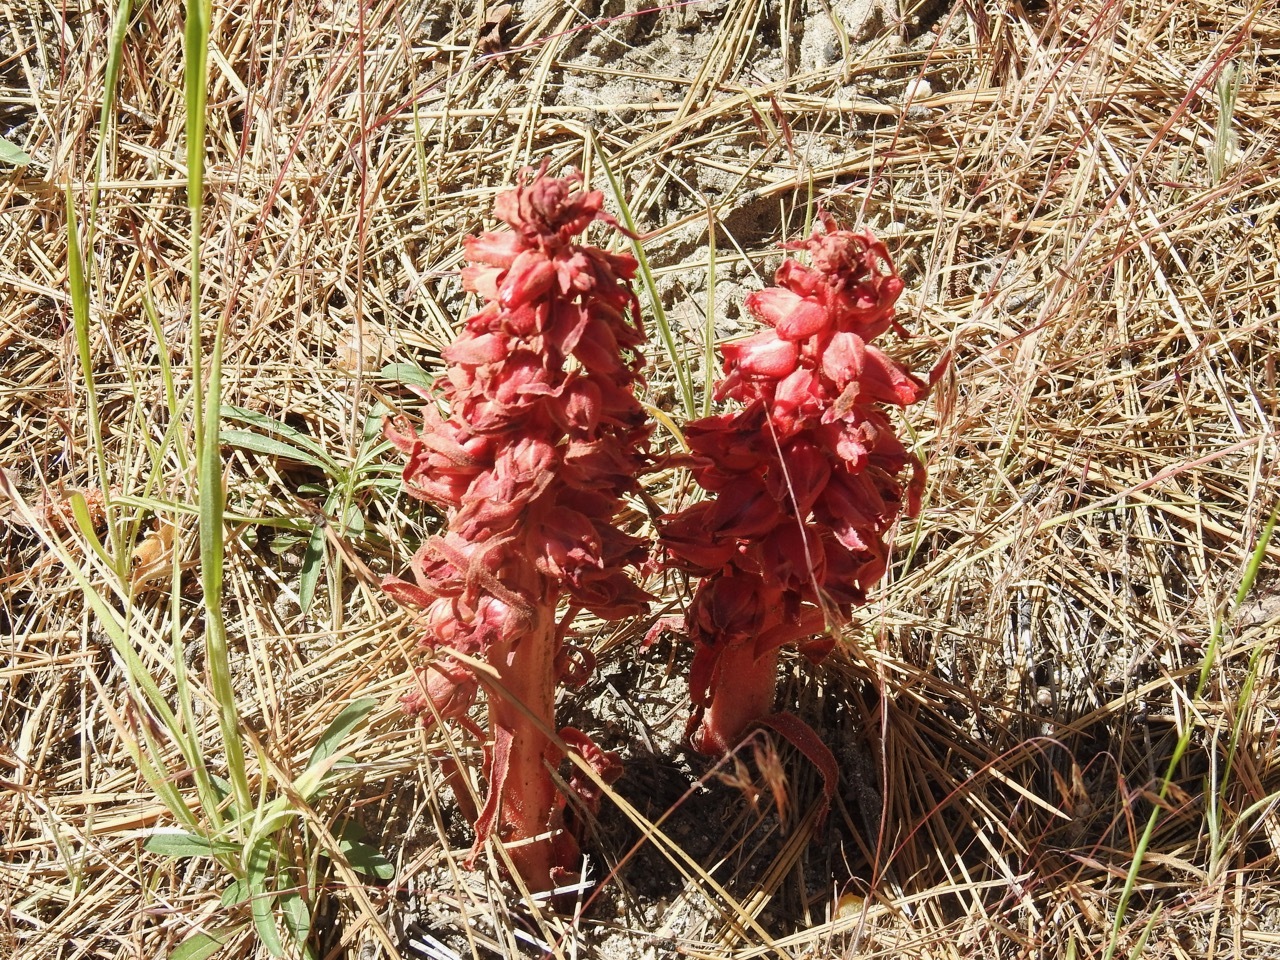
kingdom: Plantae
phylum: Tracheophyta
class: Magnoliopsida
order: Ericales
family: Ericaceae
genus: Sarcodes
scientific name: Sarcodes sanguinea
